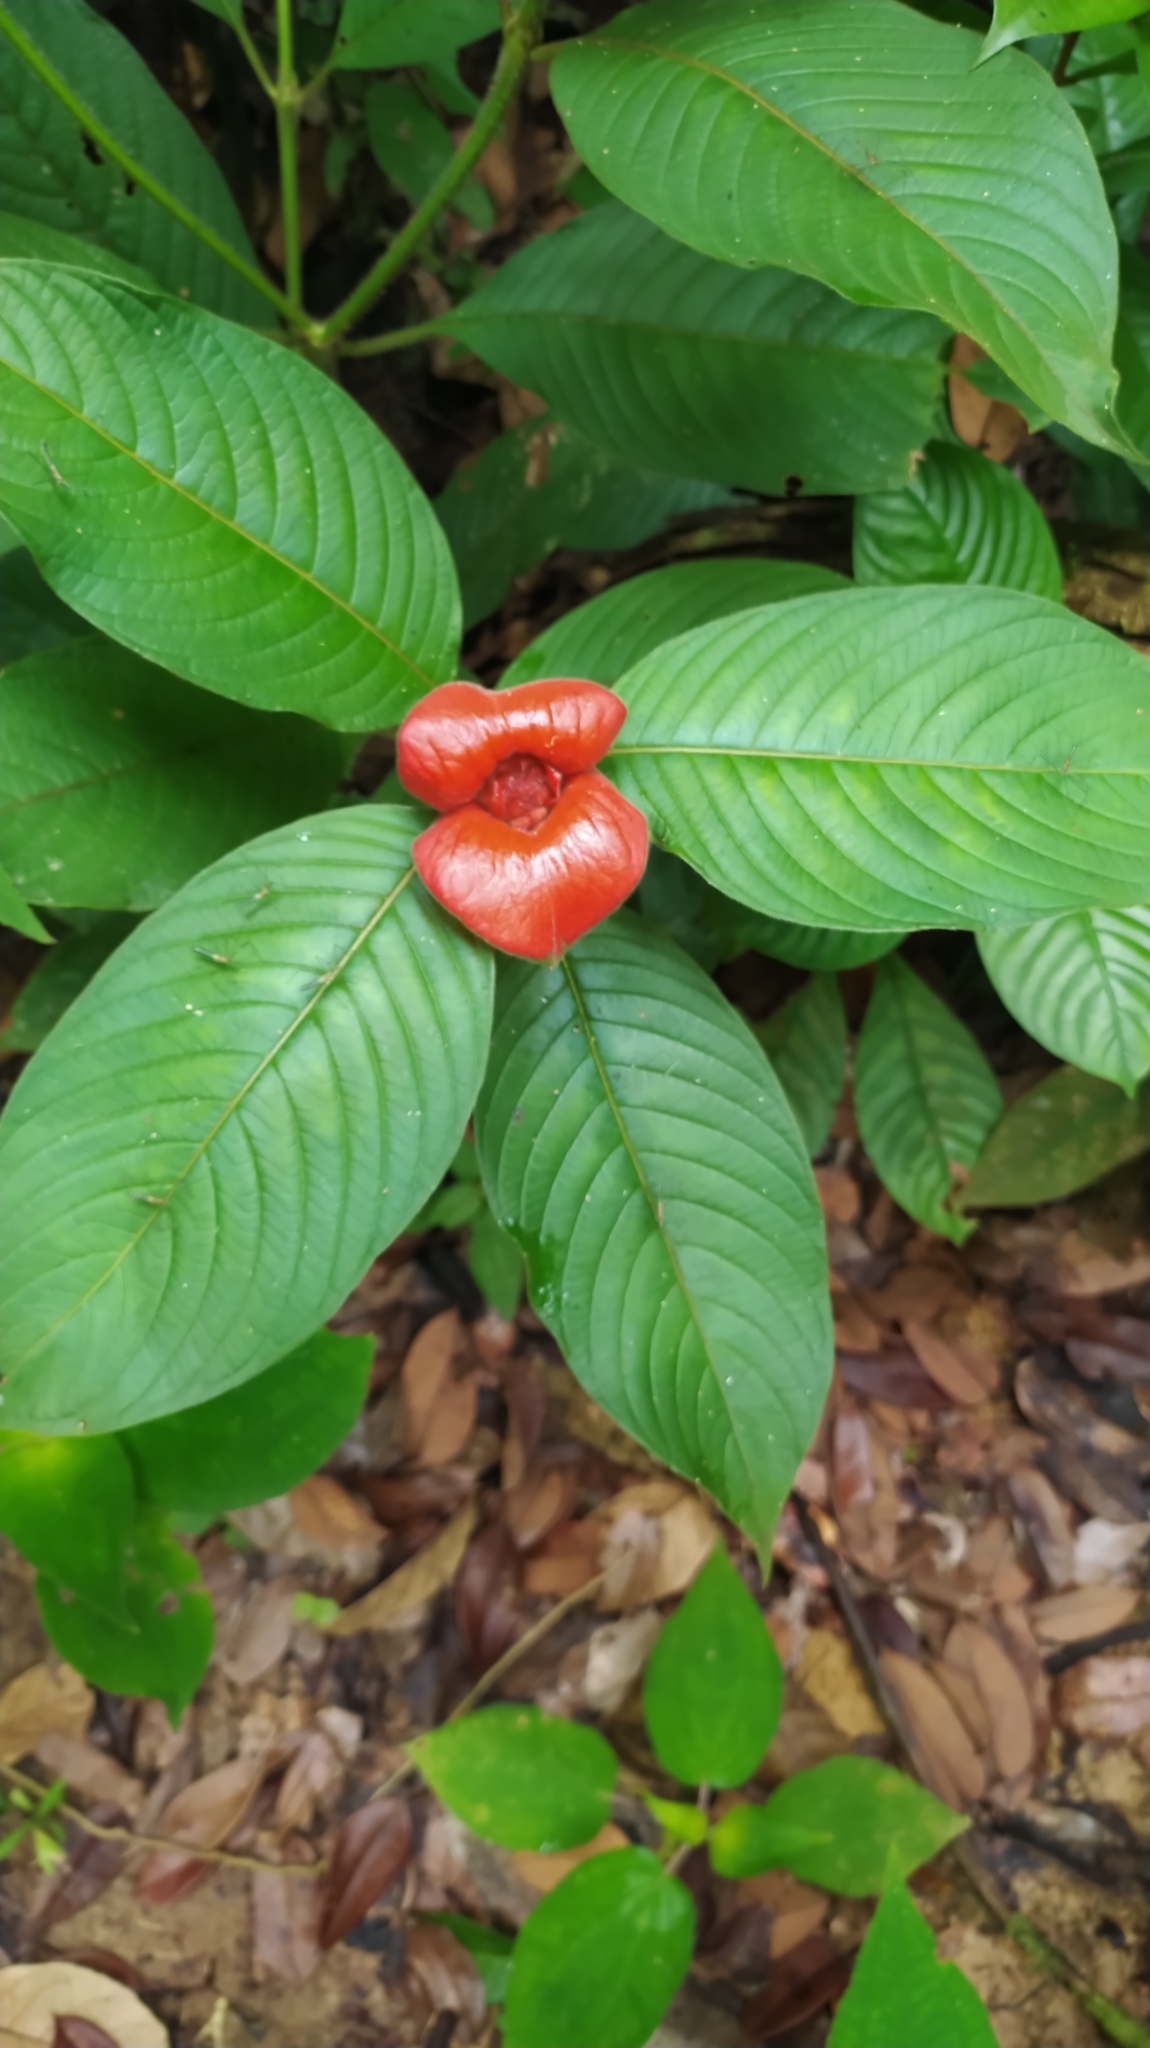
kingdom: Plantae
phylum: Tracheophyta
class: Magnoliopsida
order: Gentianales
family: Rubiaceae
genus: Palicourea
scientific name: Palicourea tomentosa
